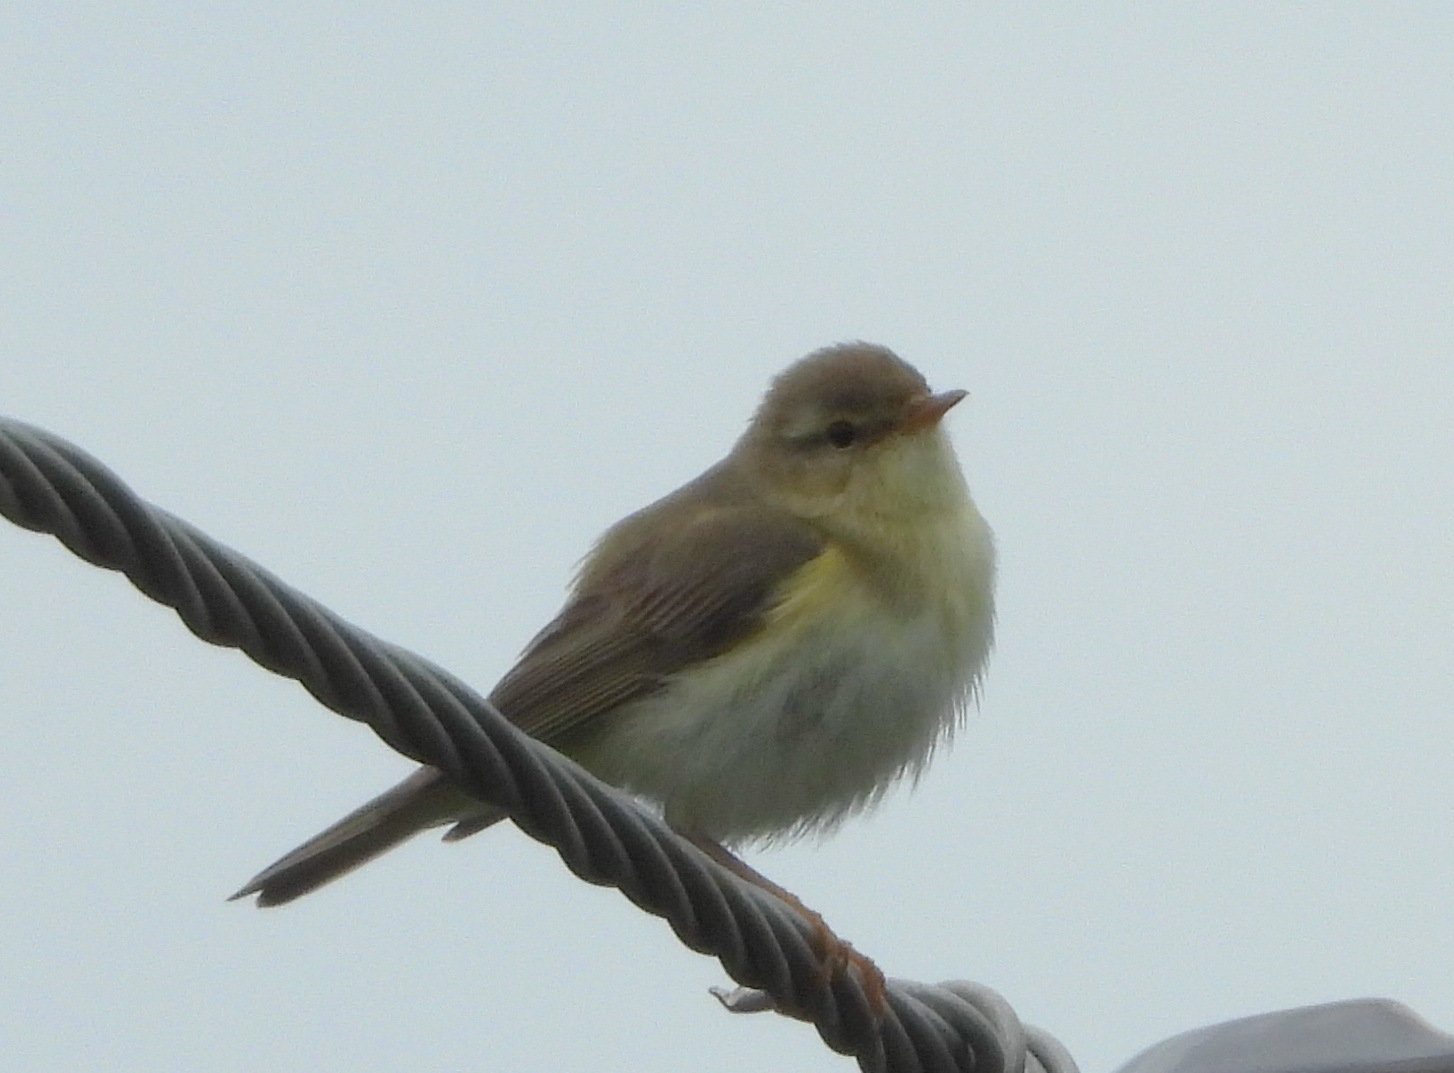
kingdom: Animalia
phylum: Chordata
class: Aves
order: Passeriformes
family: Phylloscopidae
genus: Phylloscopus
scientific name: Phylloscopus trochilus
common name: Willow warbler
